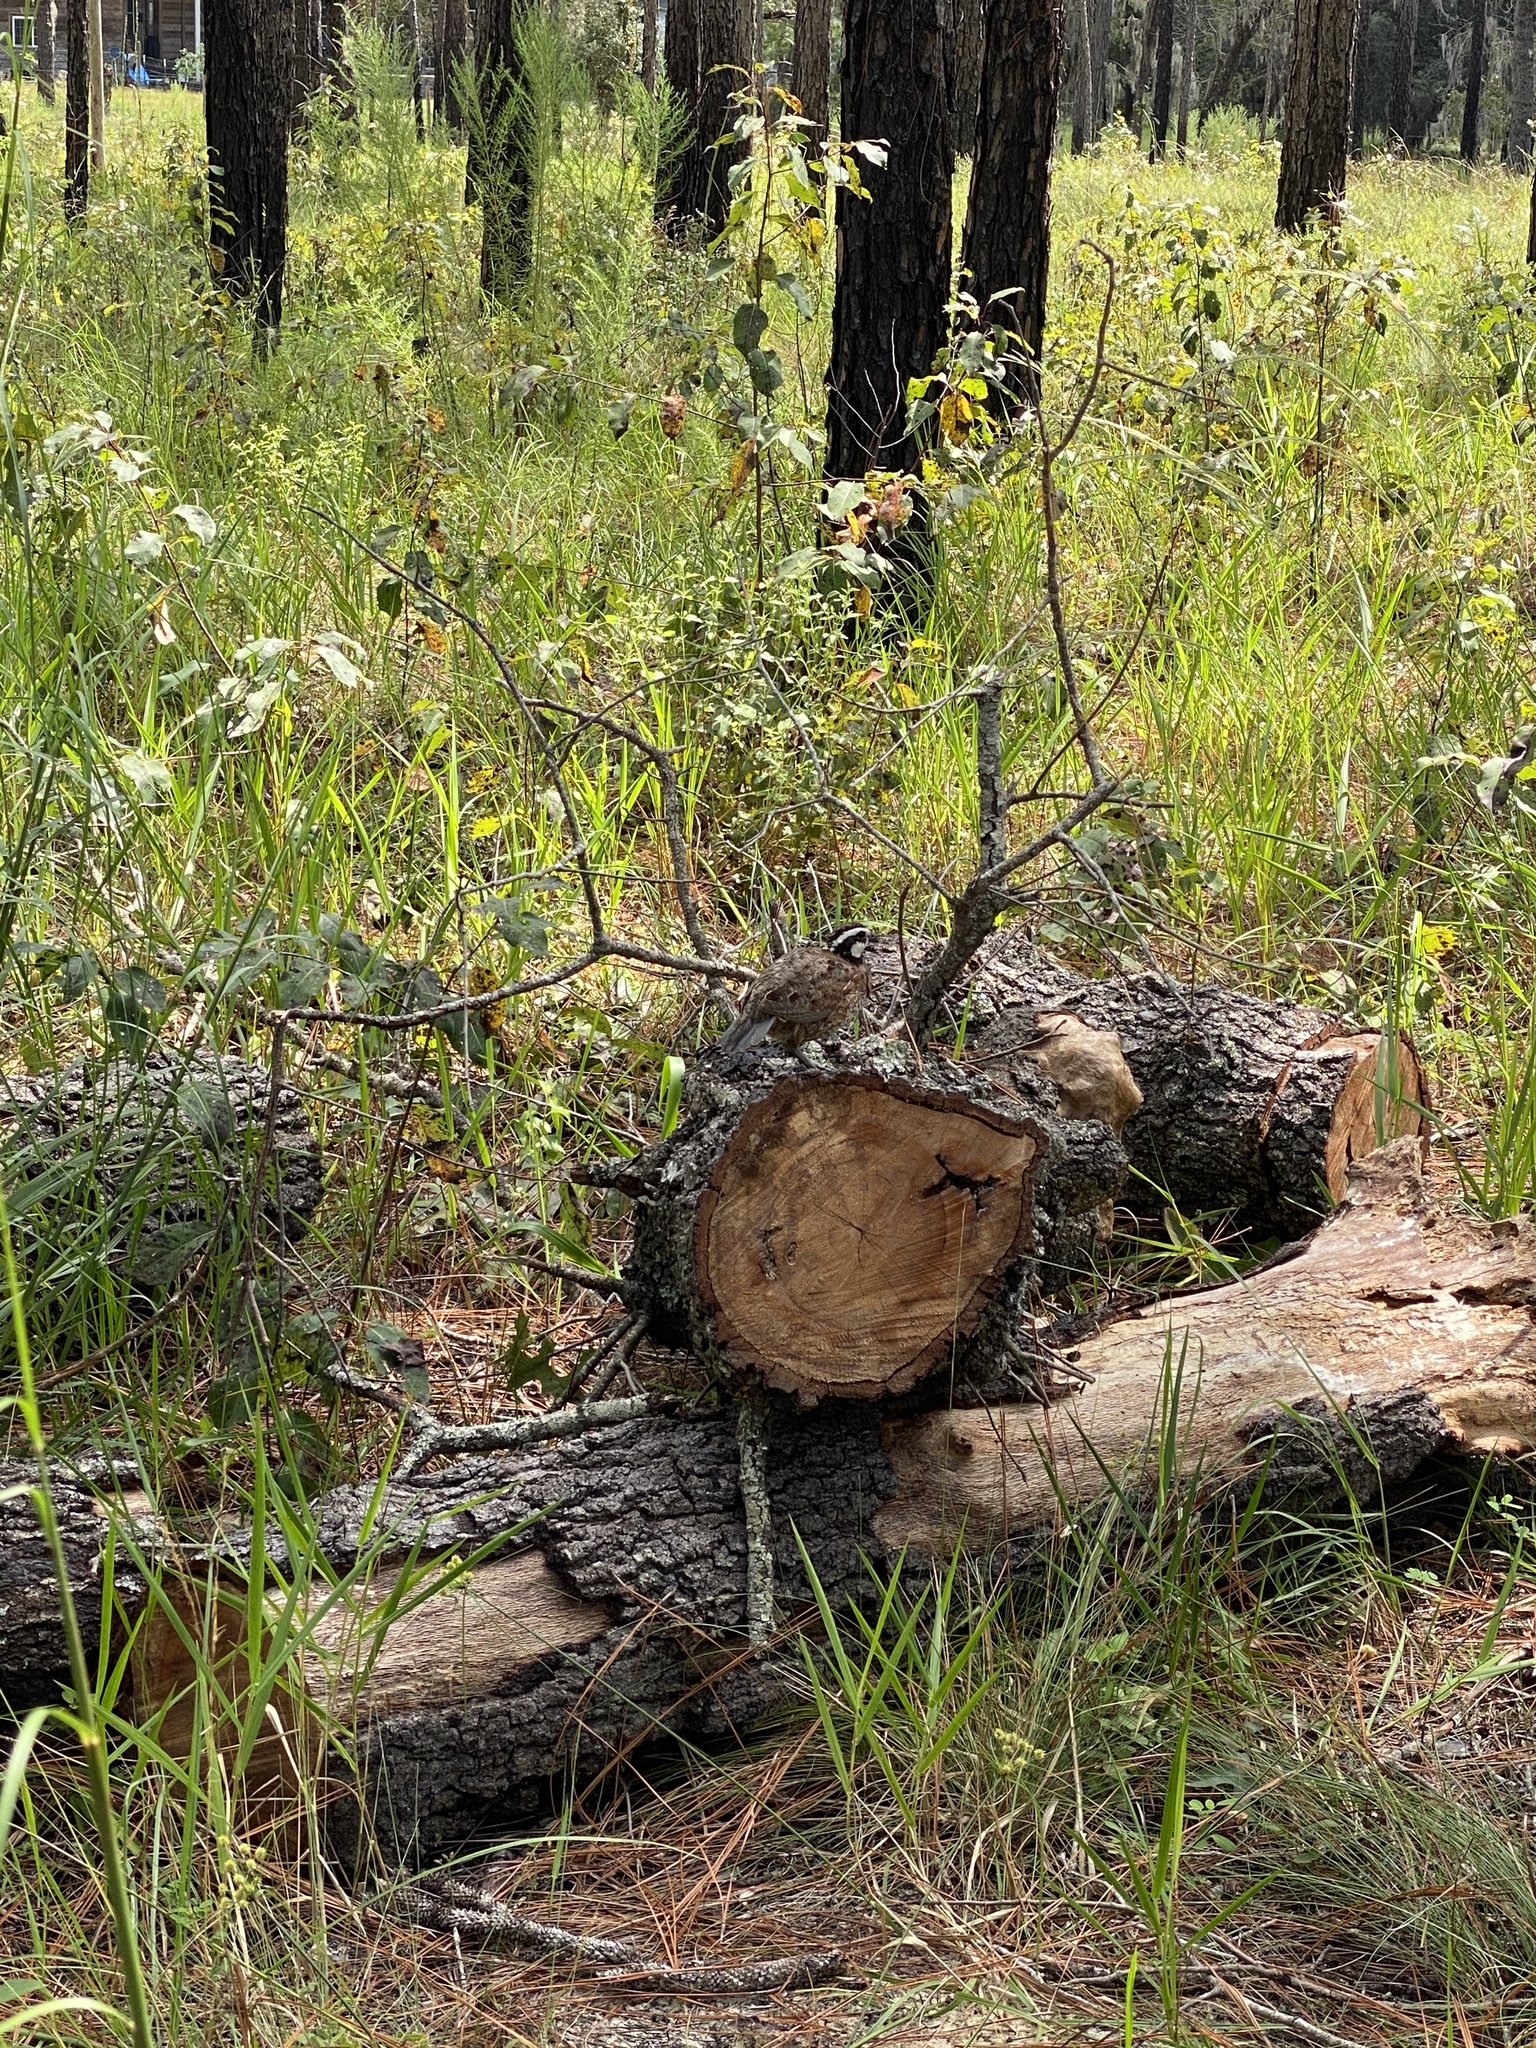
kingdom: Animalia
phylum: Chordata
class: Aves
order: Galliformes
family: Odontophoridae
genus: Colinus
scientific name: Colinus virginianus
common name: Northern bobwhite
